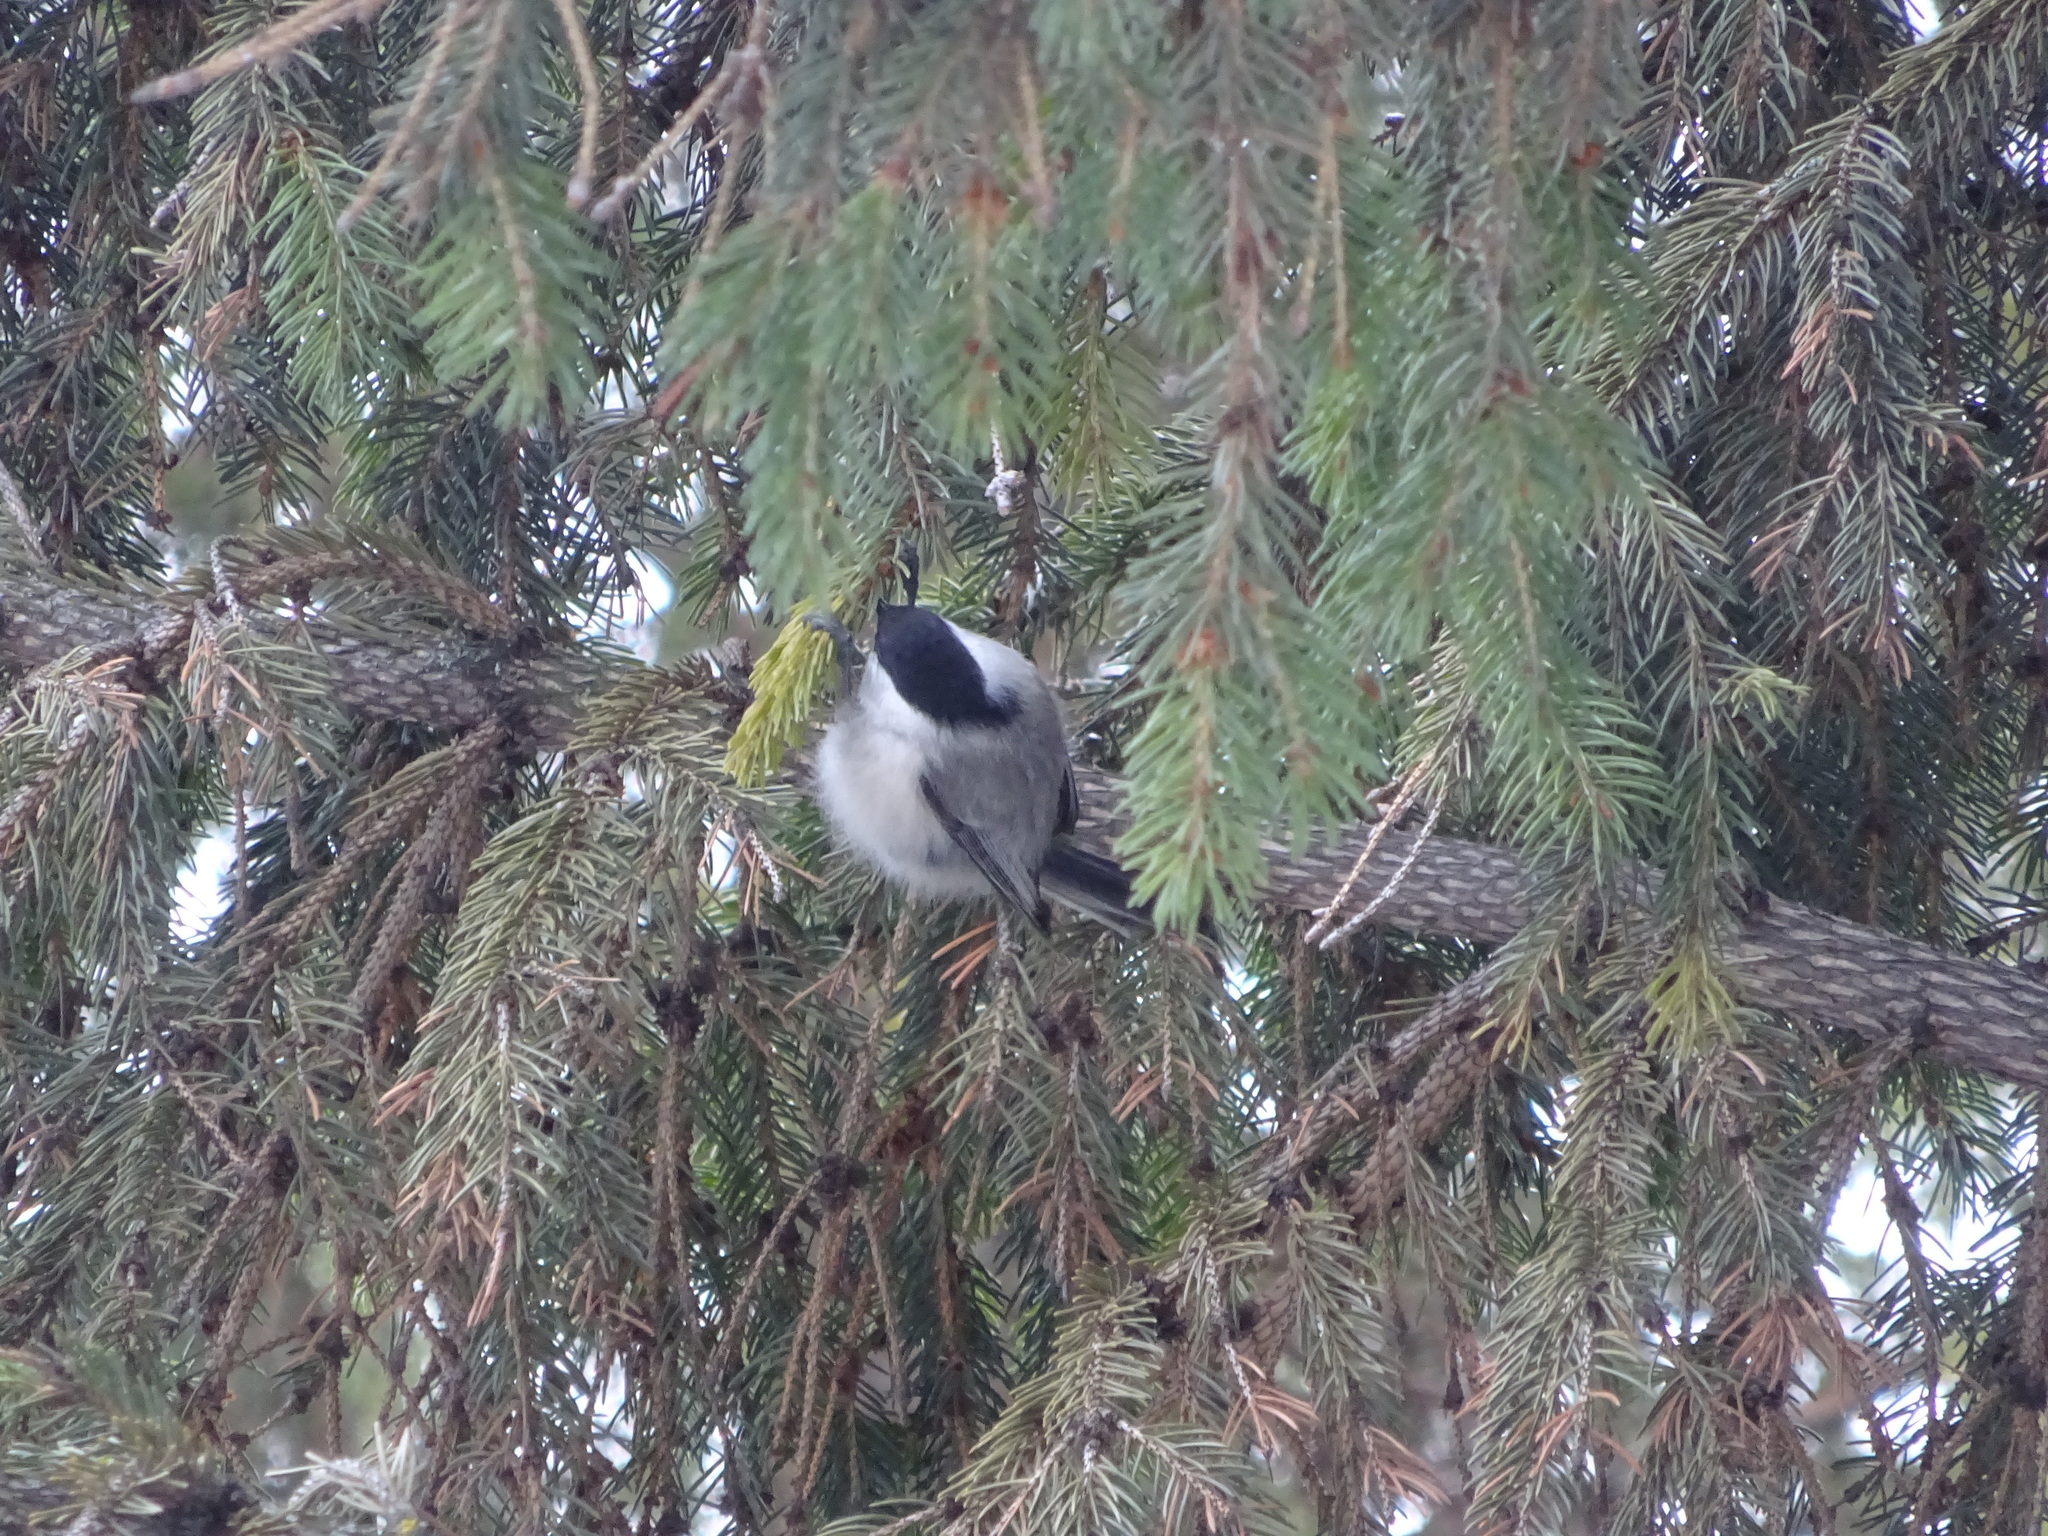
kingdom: Animalia
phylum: Chordata
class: Aves
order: Passeriformes
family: Paridae
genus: Poecile
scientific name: Poecile montanus
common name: Willow tit
